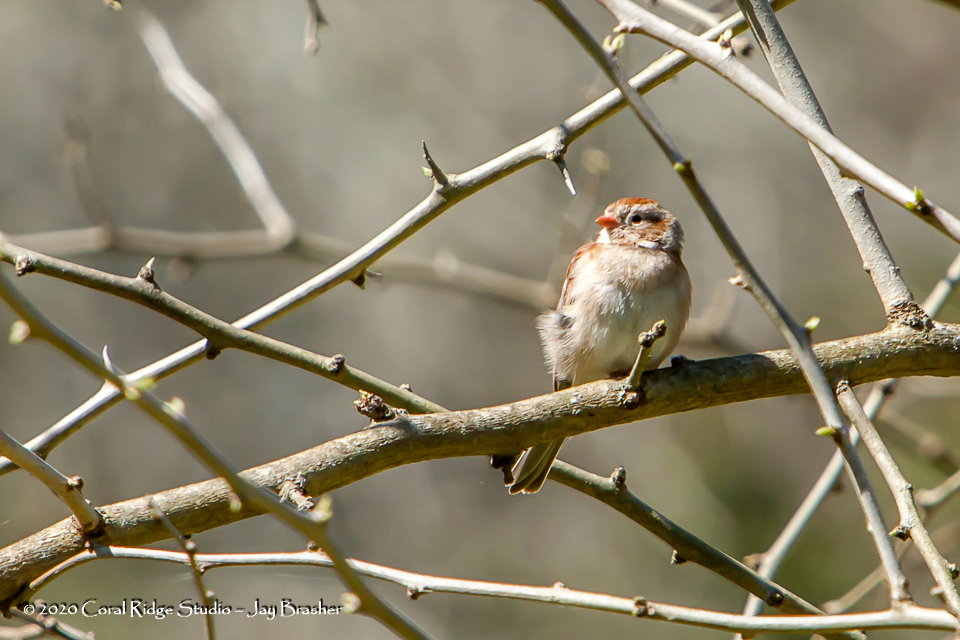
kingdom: Animalia
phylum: Chordata
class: Aves
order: Passeriformes
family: Passerellidae
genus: Spizella
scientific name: Spizella pusilla
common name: Field sparrow
